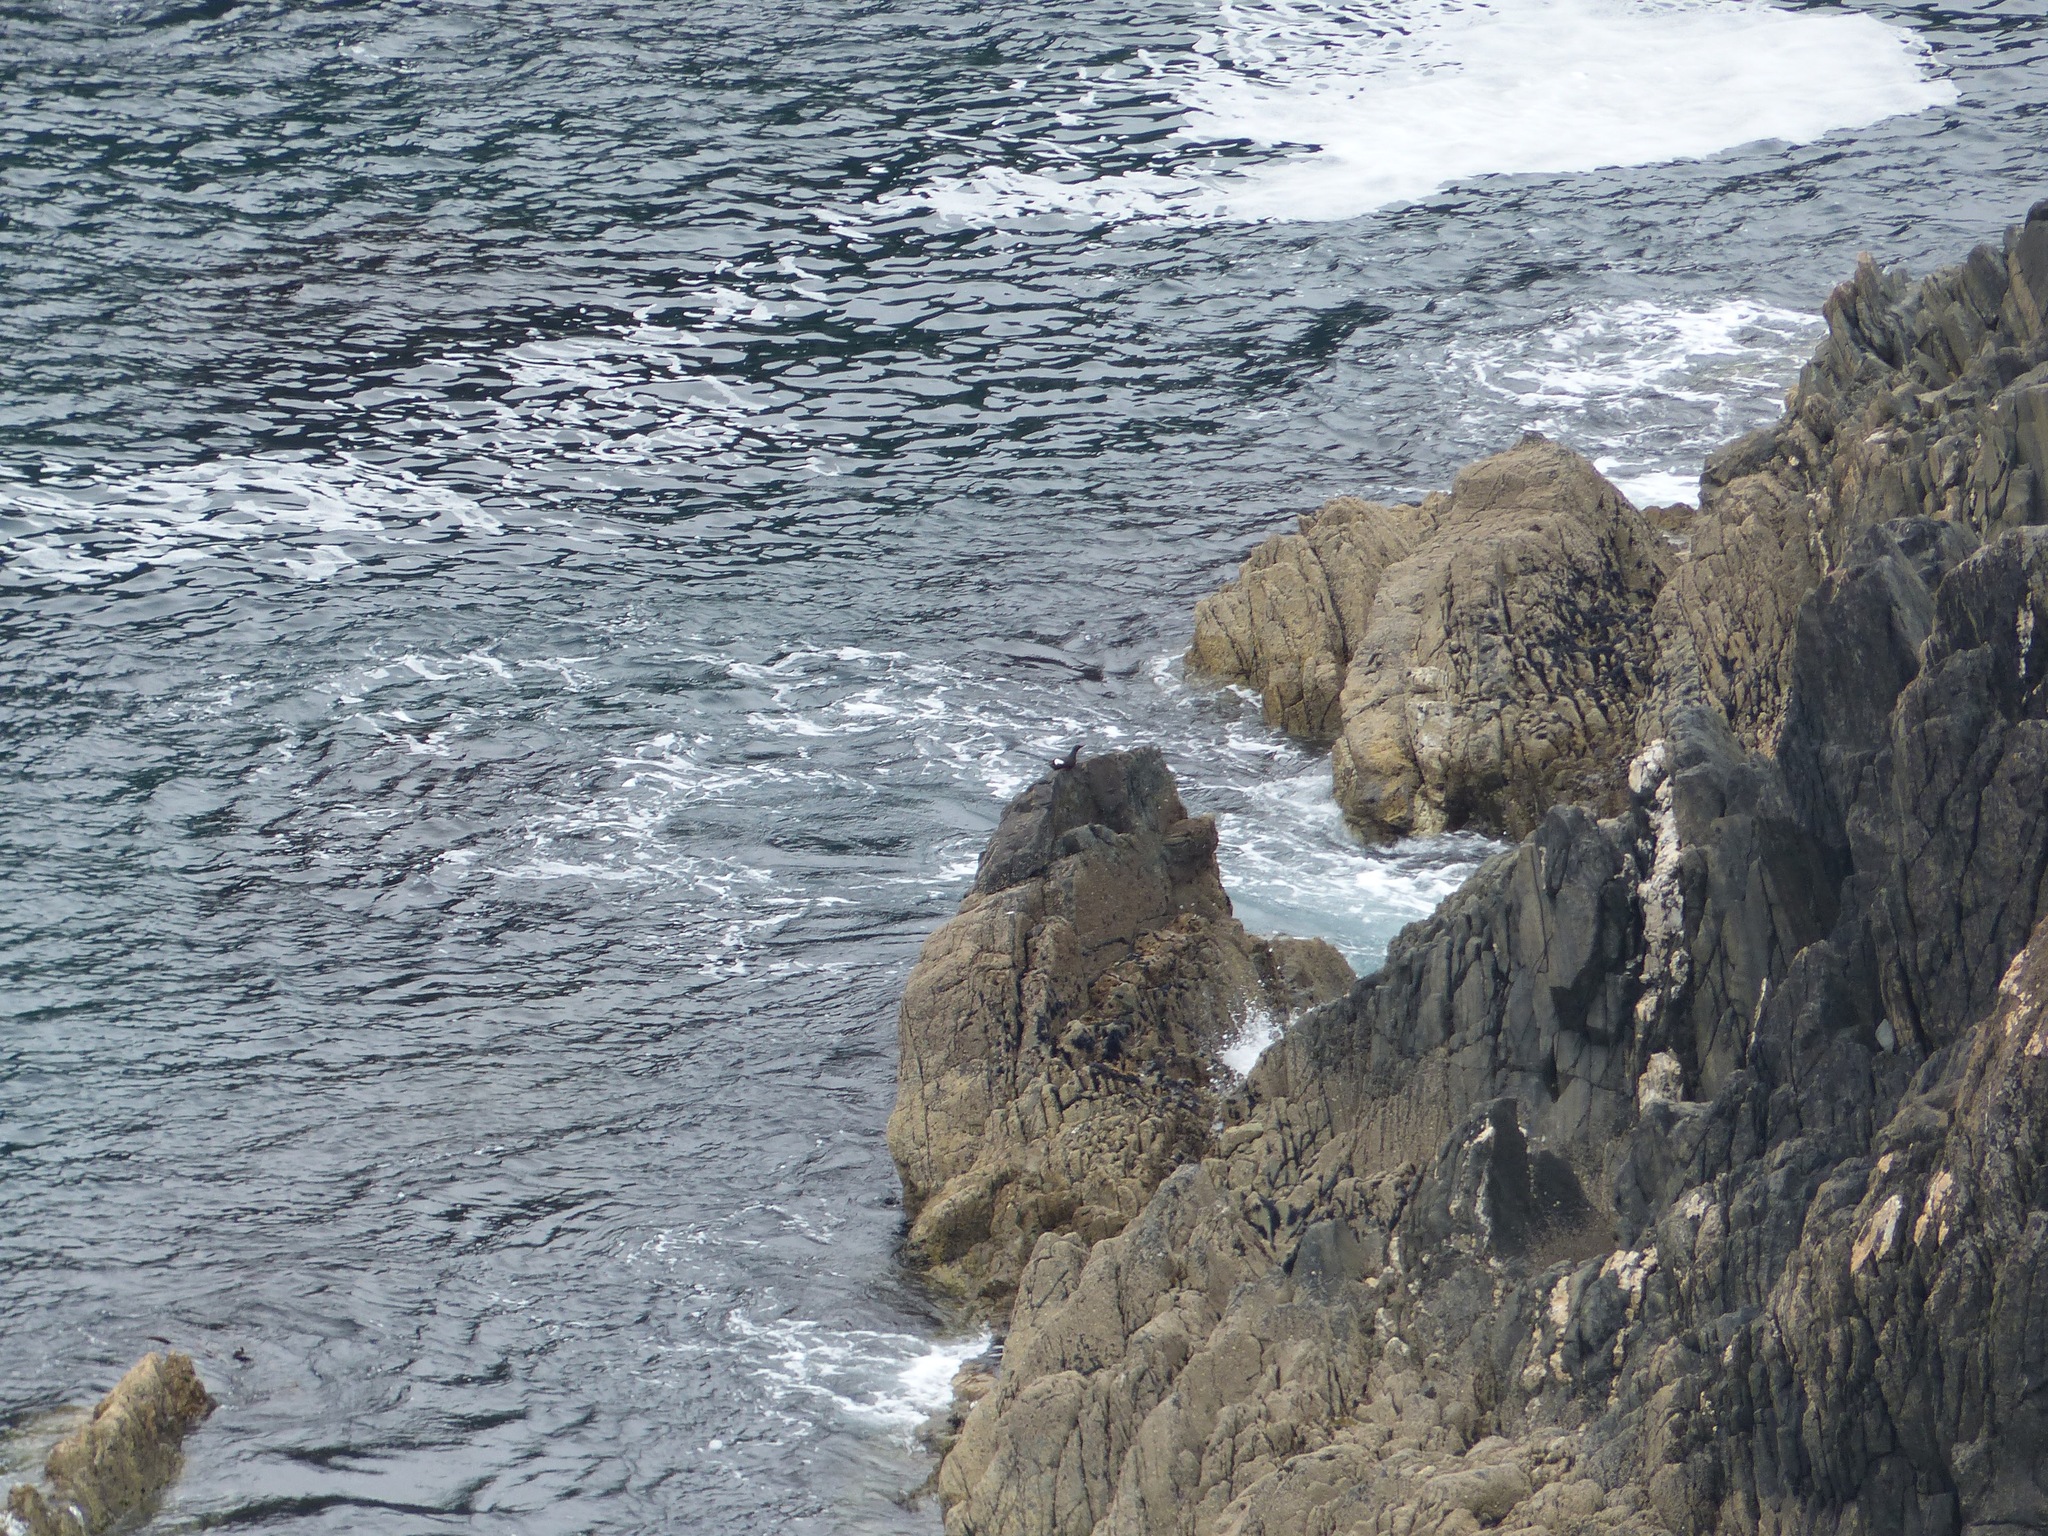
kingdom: Animalia
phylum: Chordata
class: Aves
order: Charadriiformes
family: Alcidae
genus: Cepphus
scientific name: Cepphus grylle
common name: Black guillemot
